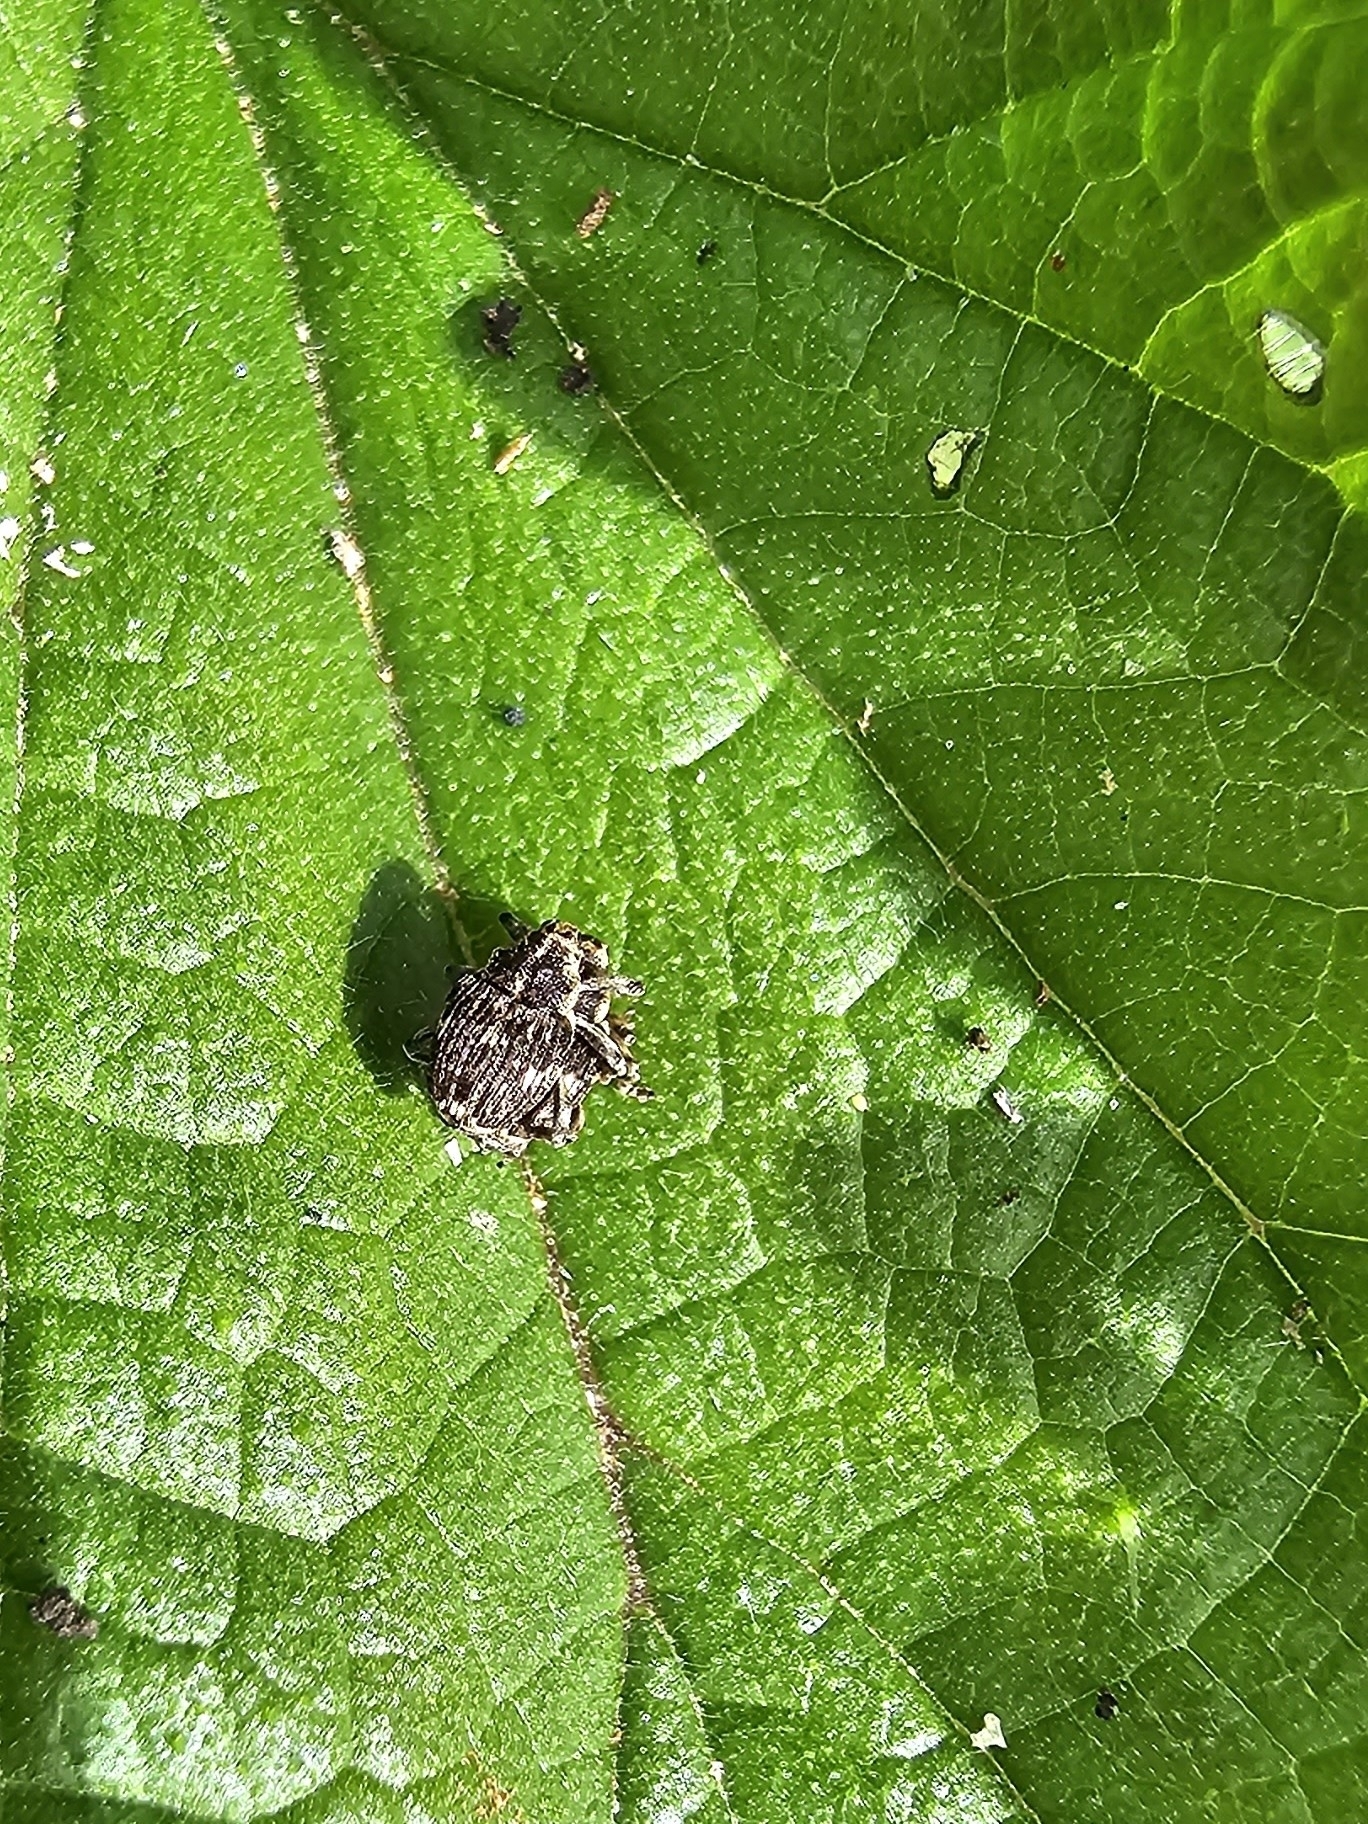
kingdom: Animalia
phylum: Arthropoda
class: Insecta
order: Coleoptera
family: Curculionidae
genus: Nedyus
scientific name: Nedyus quadrimaculatus
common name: Small nettle weevil
